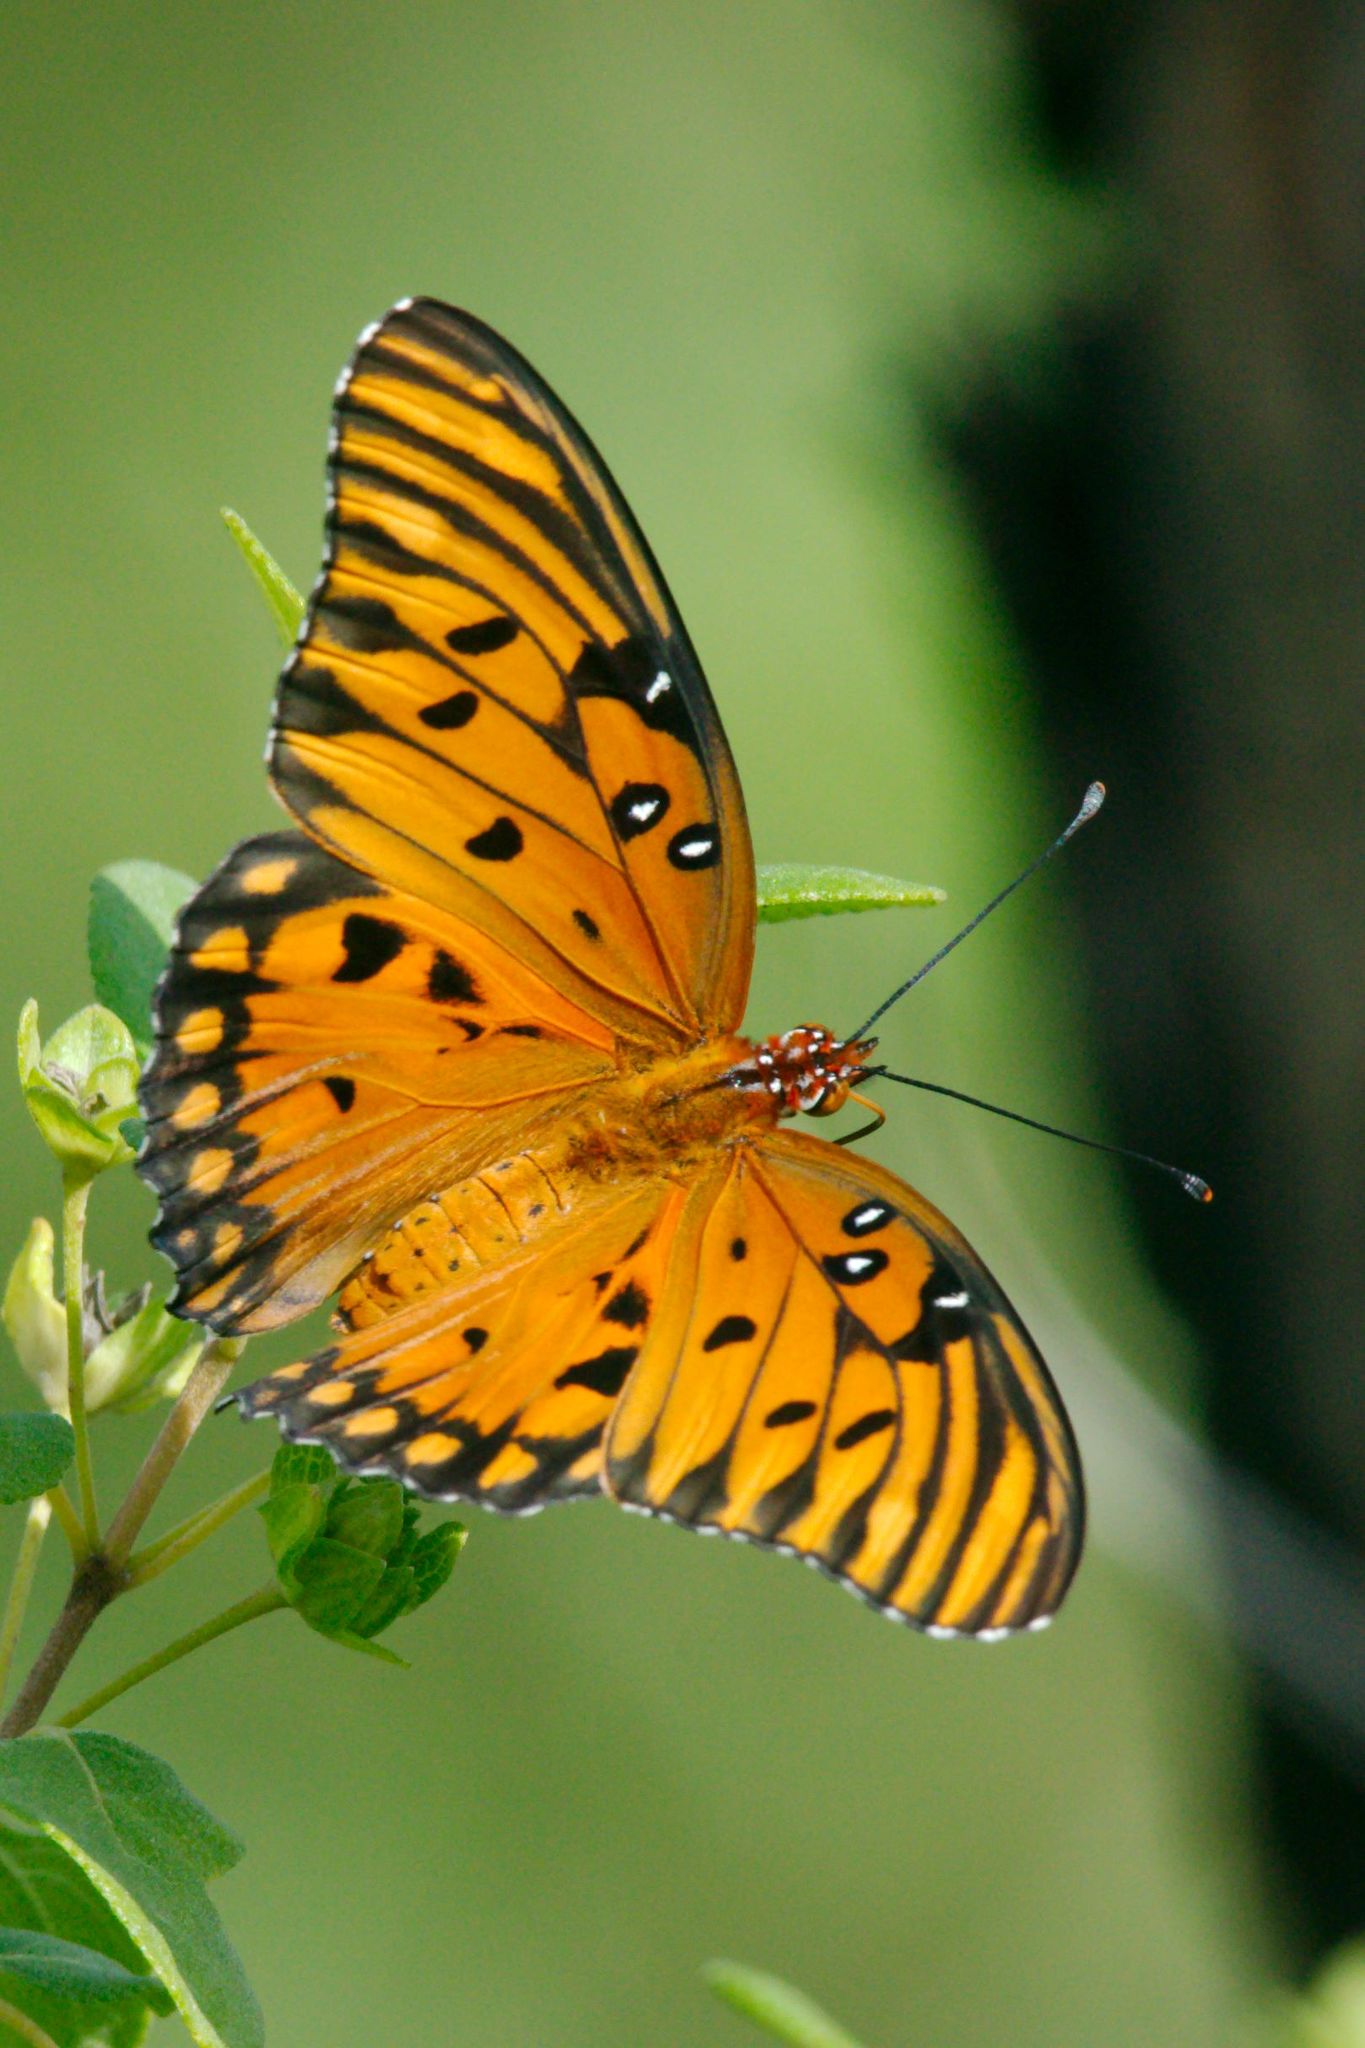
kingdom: Animalia
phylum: Arthropoda
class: Insecta
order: Lepidoptera
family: Nymphalidae
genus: Dione
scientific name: Dione vanillae
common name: Gulf fritillary
